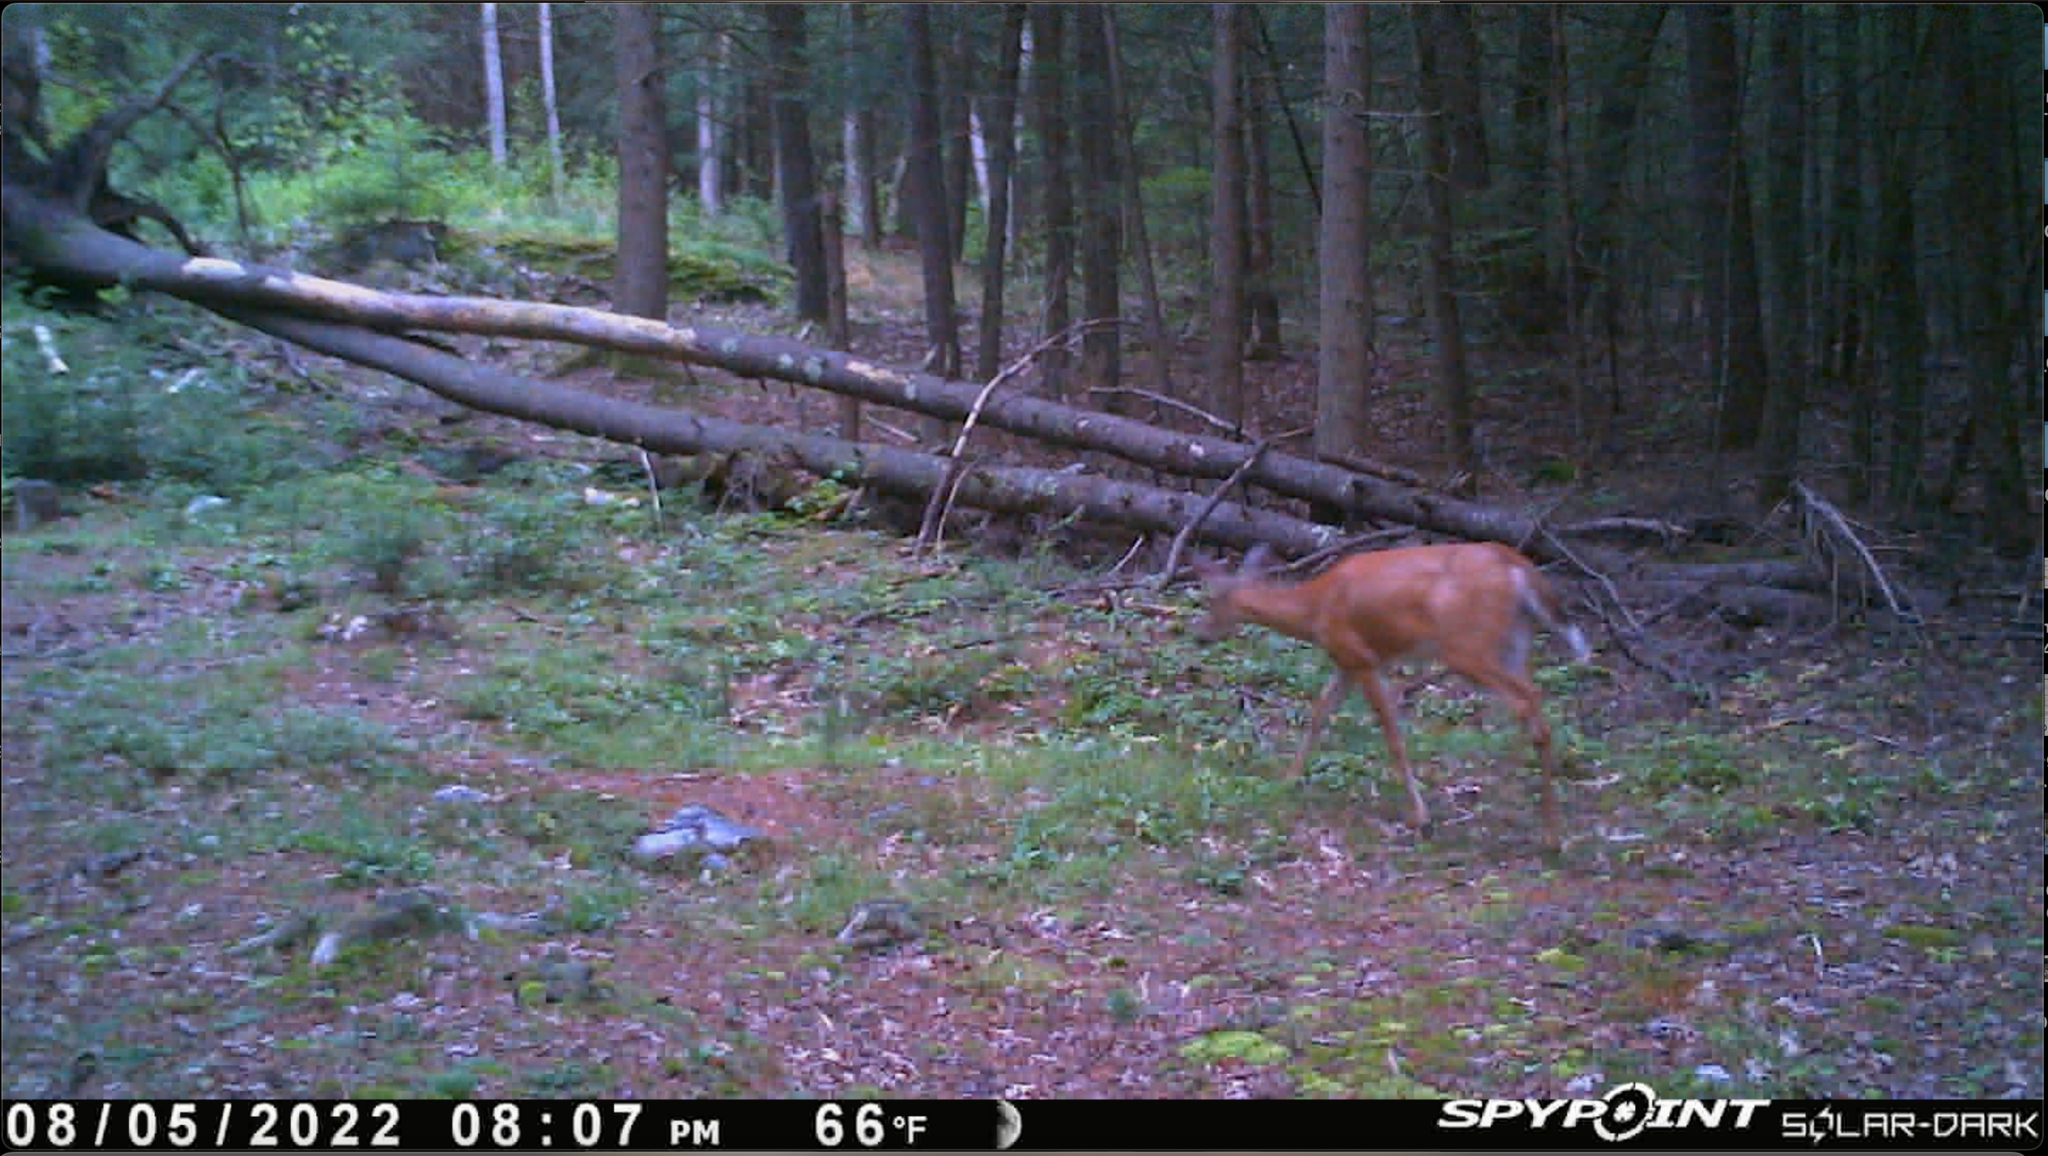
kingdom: Animalia
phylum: Chordata
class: Mammalia
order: Artiodactyla
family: Cervidae
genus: Odocoileus
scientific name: Odocoileus virginianus
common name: White-tailed deer
